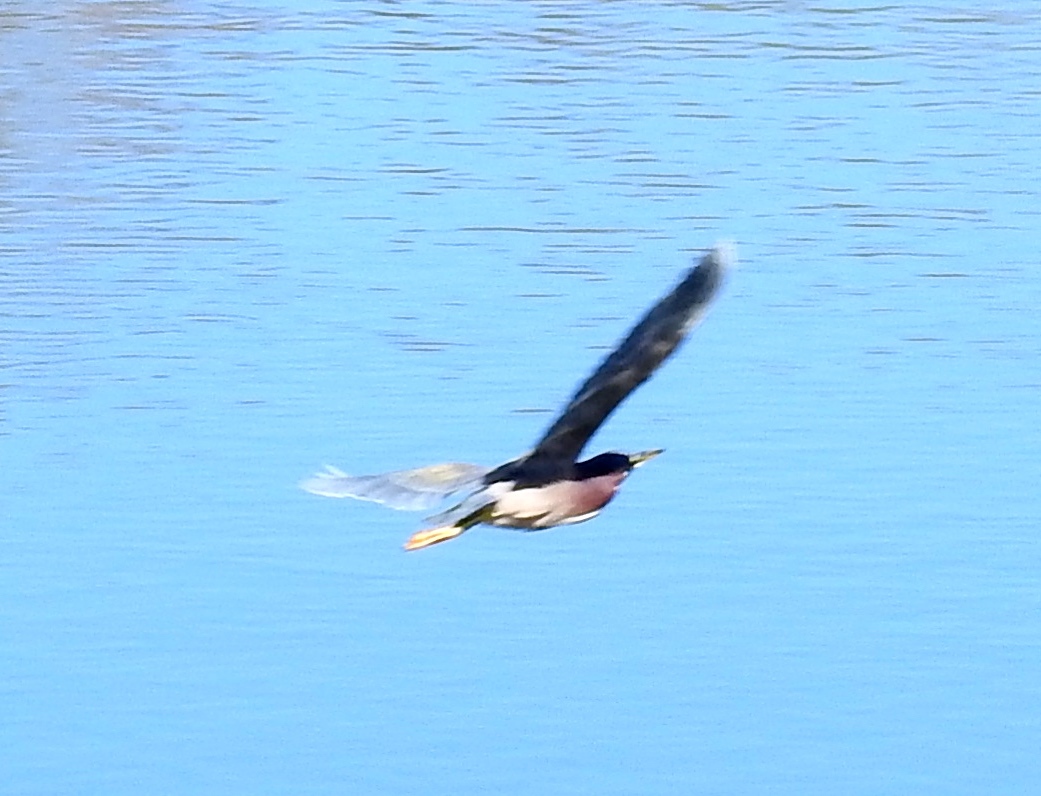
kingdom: Animalia
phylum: Chordata
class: Aves
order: Pelecaniformes
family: Ardeidae
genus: Butorides
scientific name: Butorides virescens
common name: Green heron
